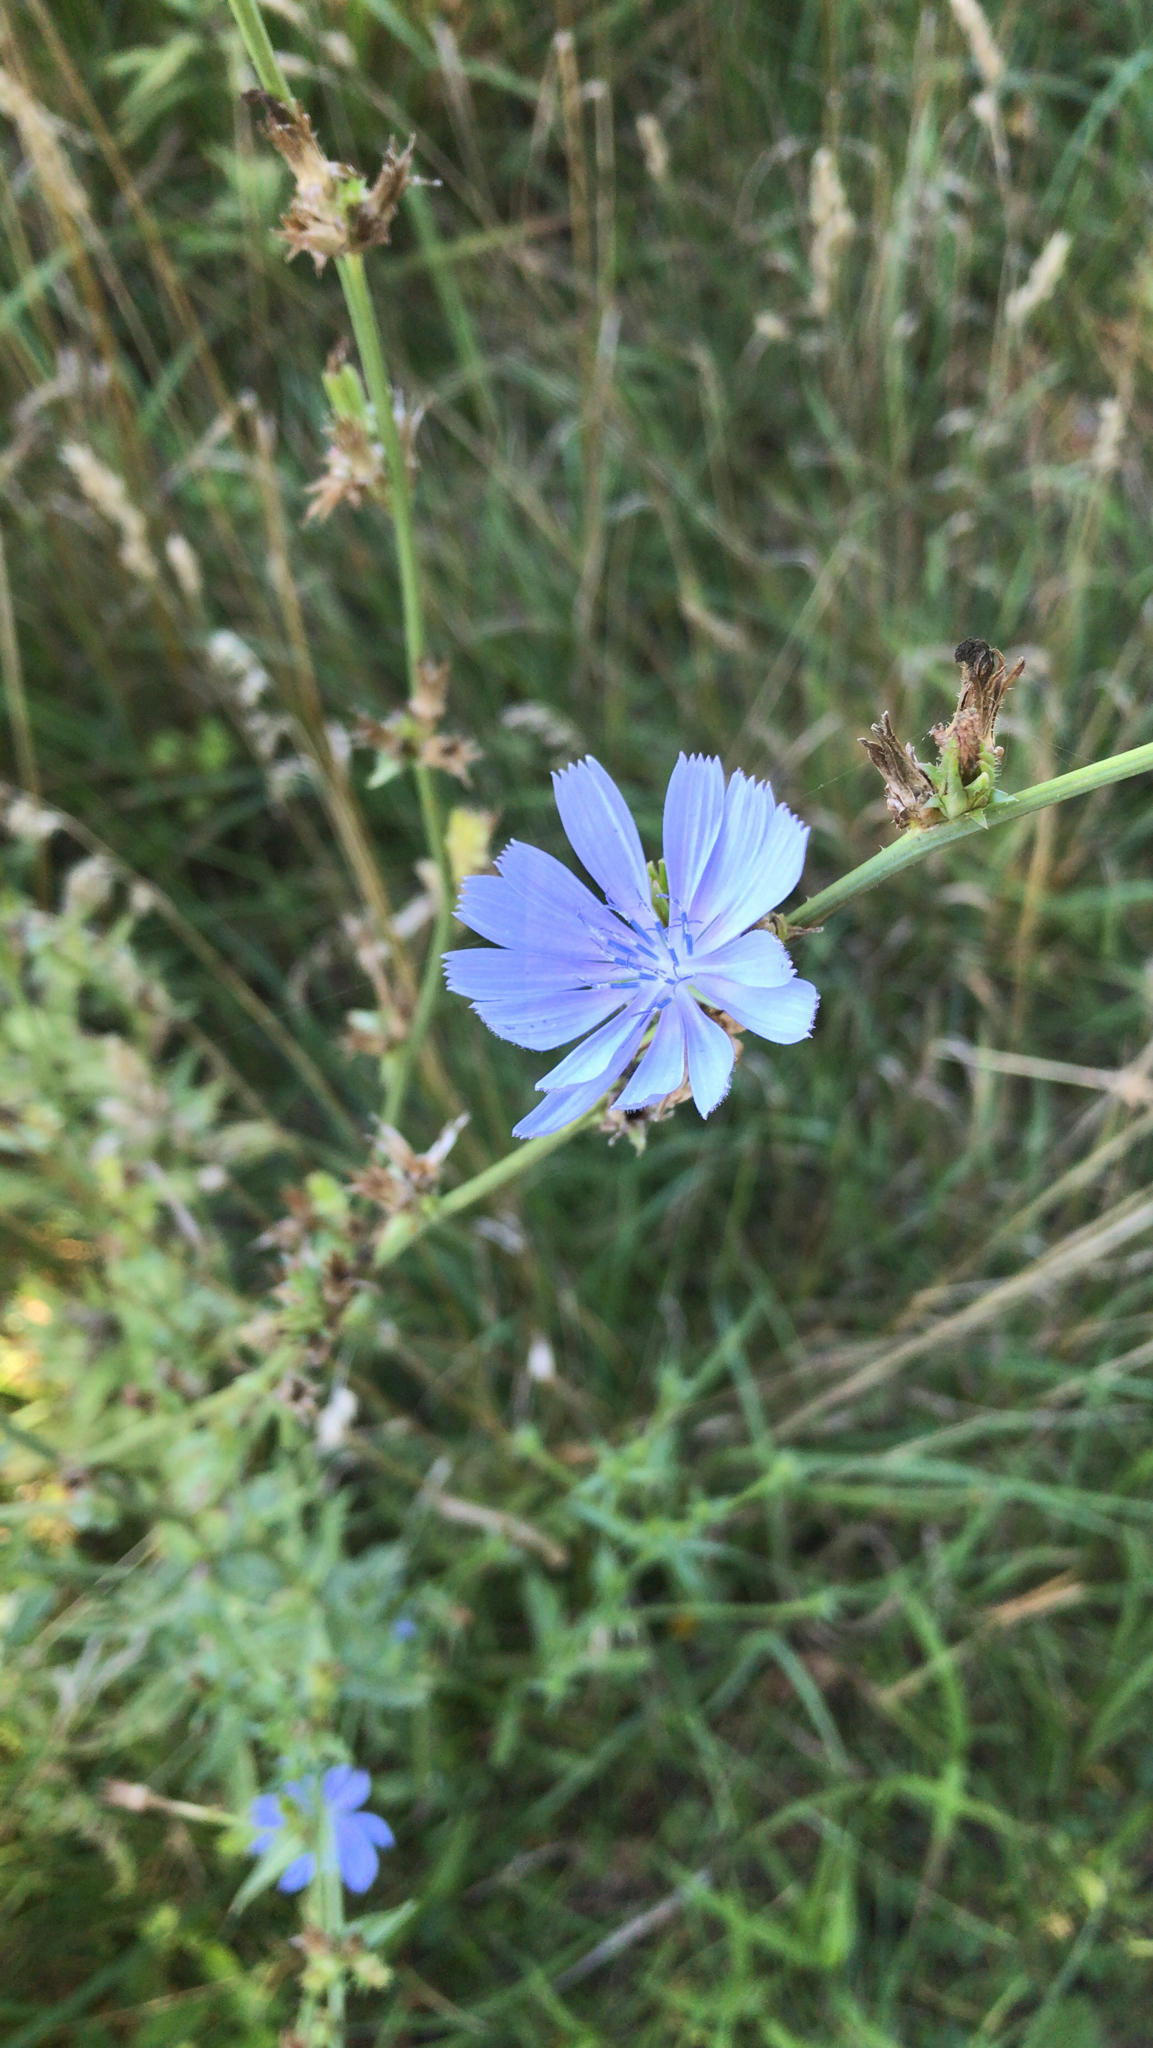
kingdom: Plantae
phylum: Tracheophyta
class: Magnoliopsida
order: Asterales
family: Asteraceae
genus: Cichorium
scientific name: Cichorium intybus
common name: Chicory
